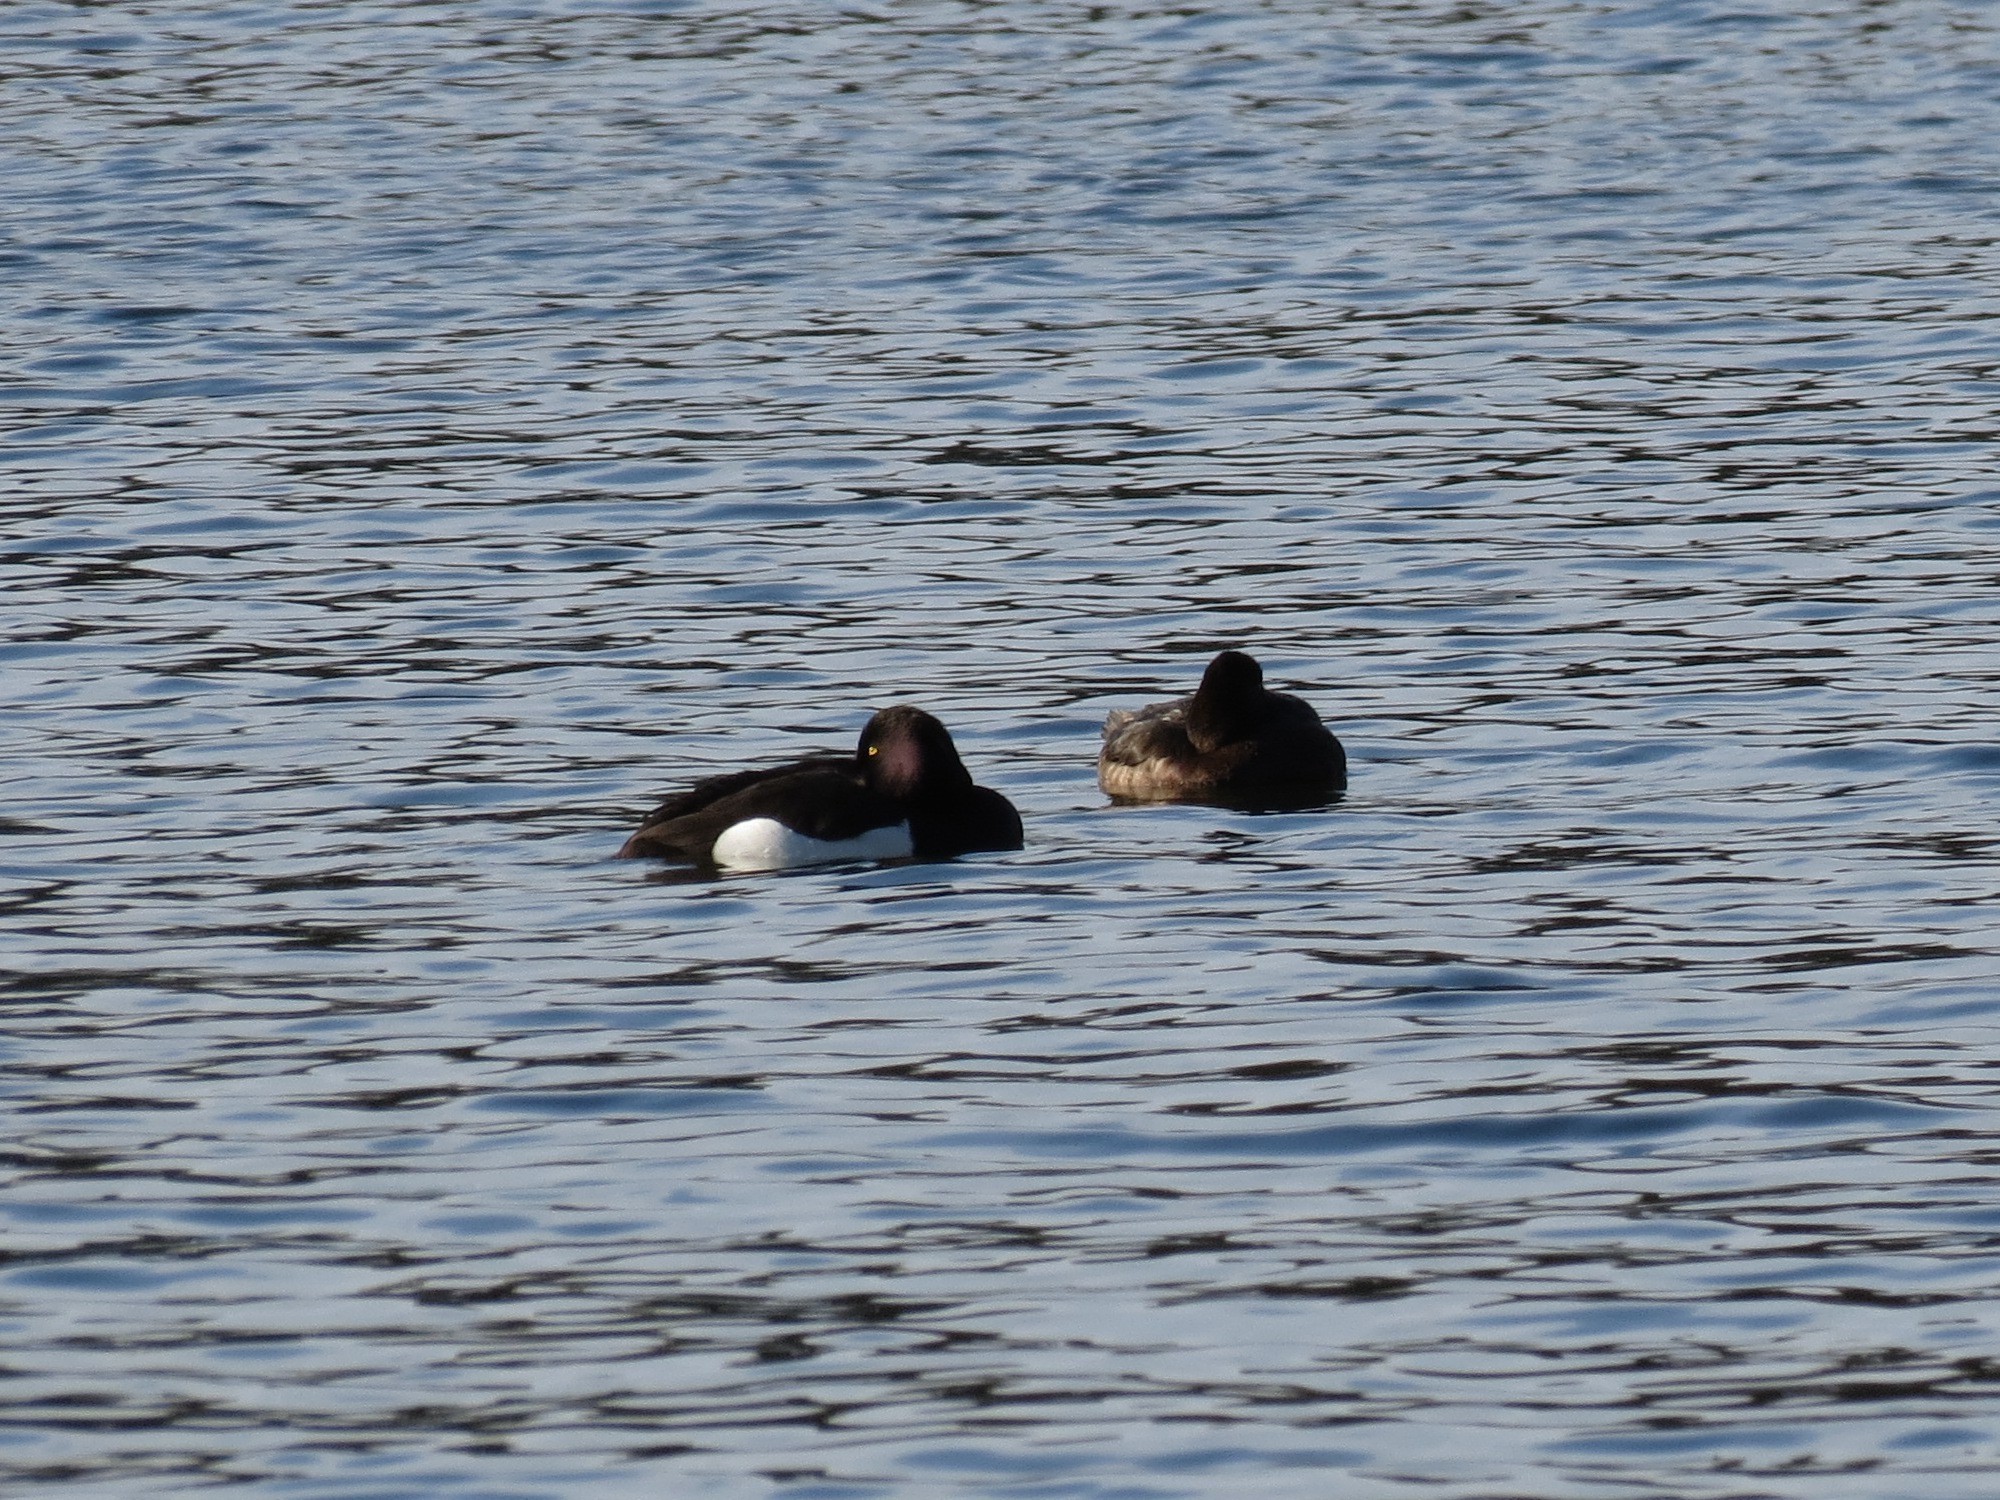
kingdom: Animalia
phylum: Chordata
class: Aves
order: Anseriformes
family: Anatidae
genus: Aythya
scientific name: Aythya fuligula
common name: Tufted duck
